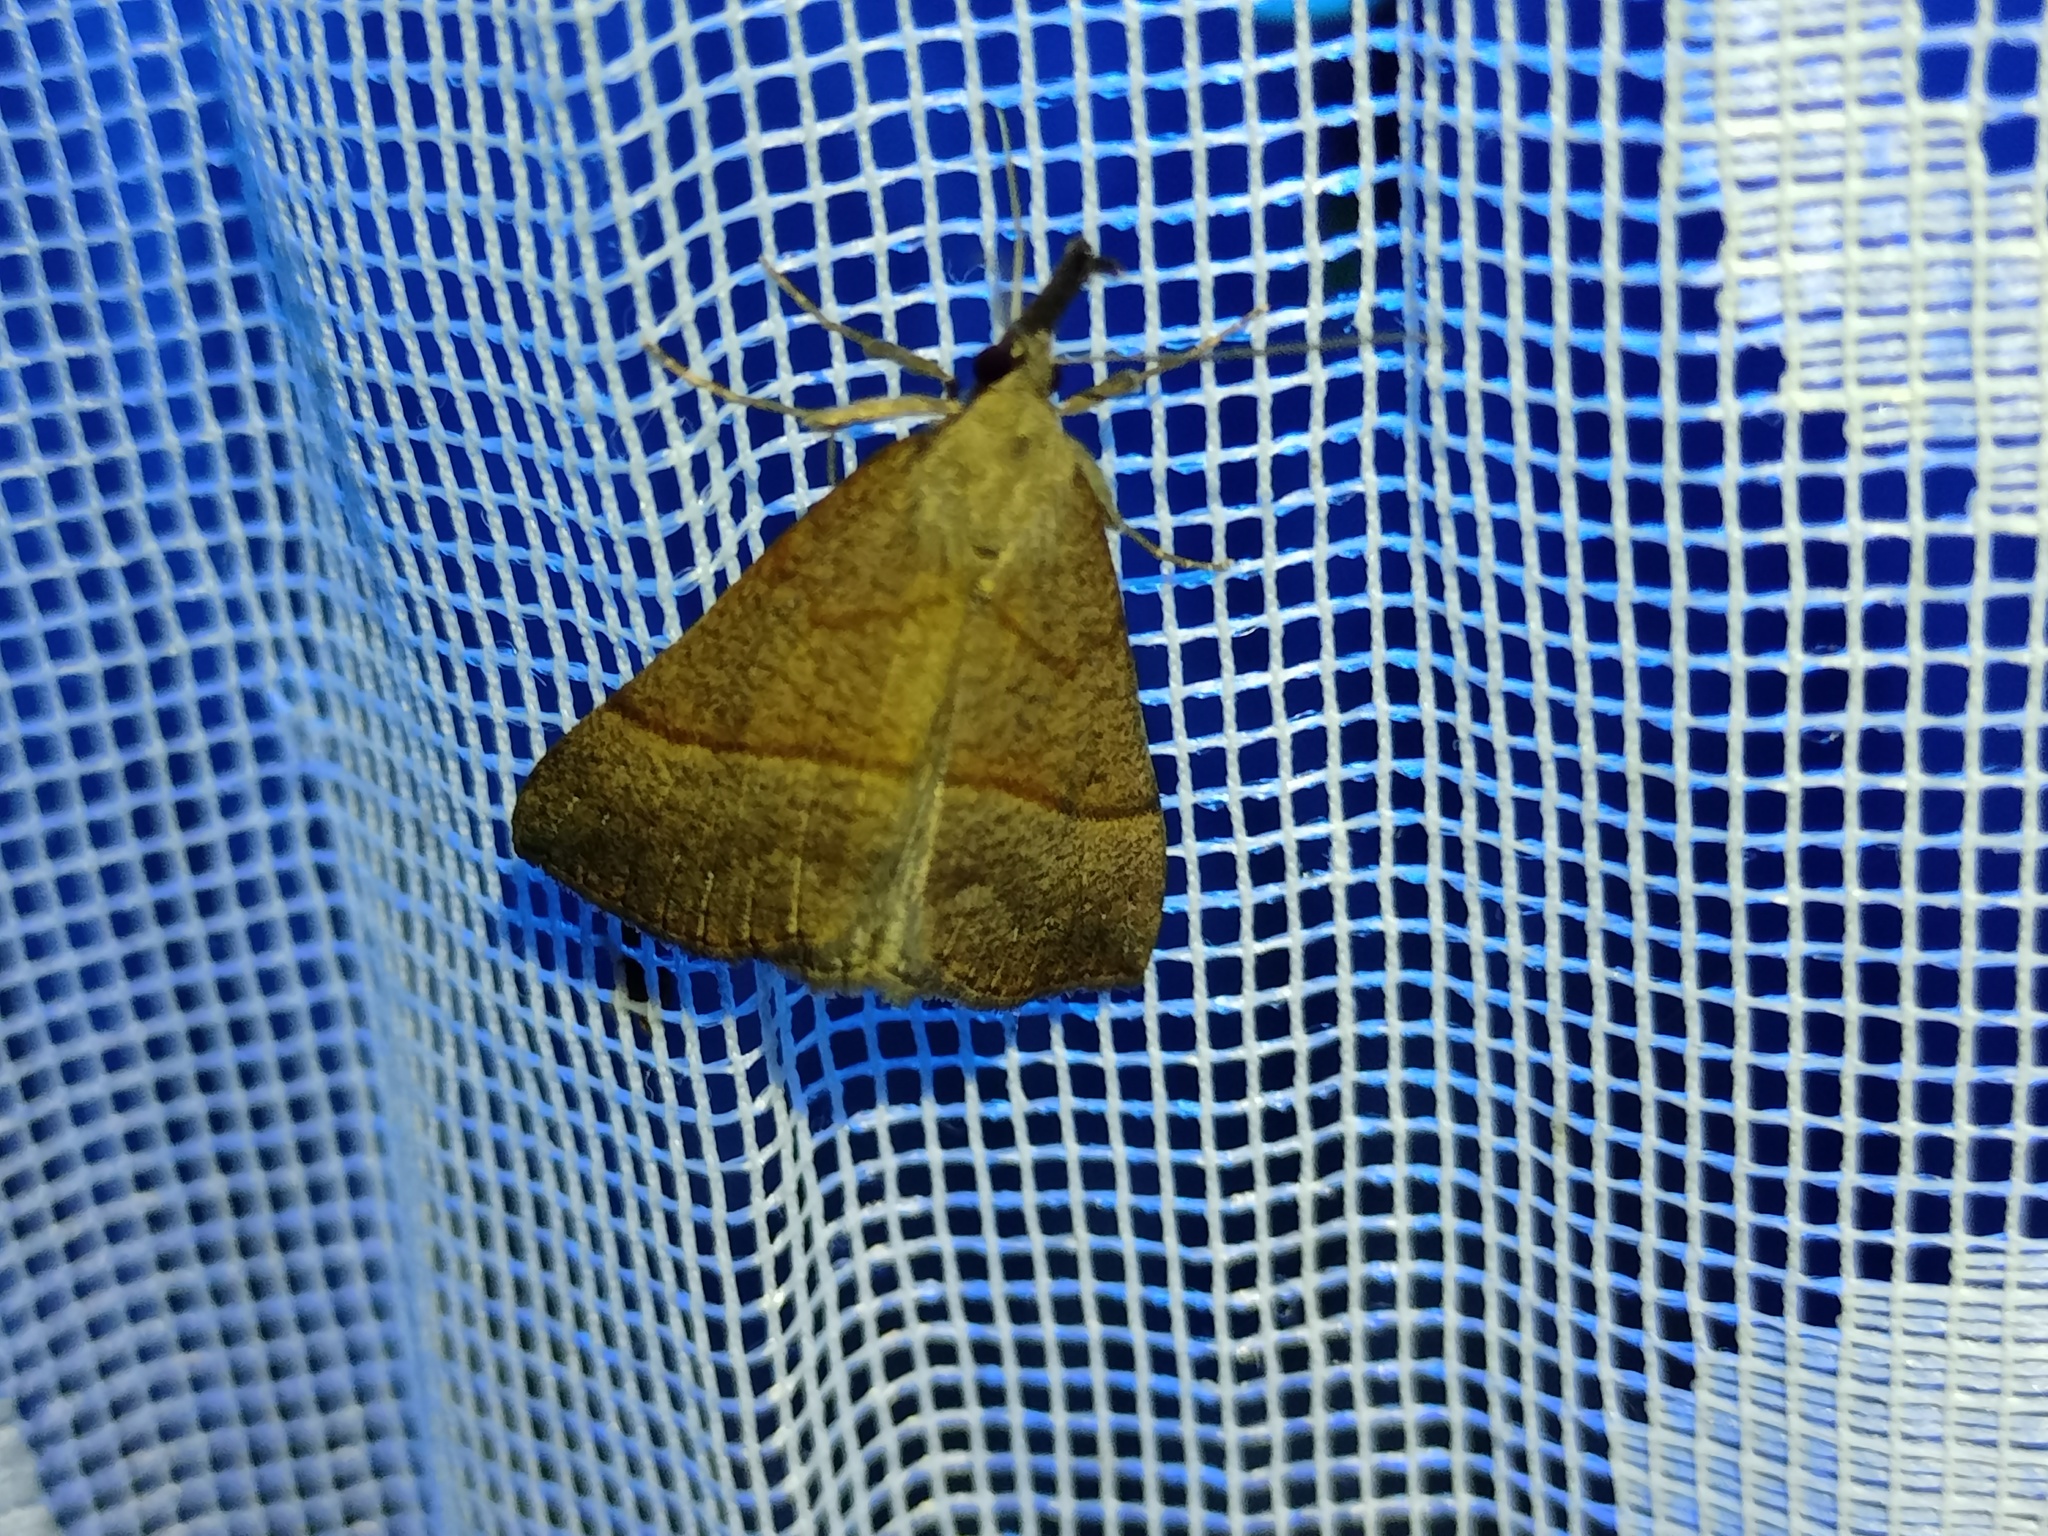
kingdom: Animalia
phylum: Arthropoda
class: Insecta
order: Lepidoptera
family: Erebidae
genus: Hypena
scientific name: Hypena proboscidalis
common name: Snout
